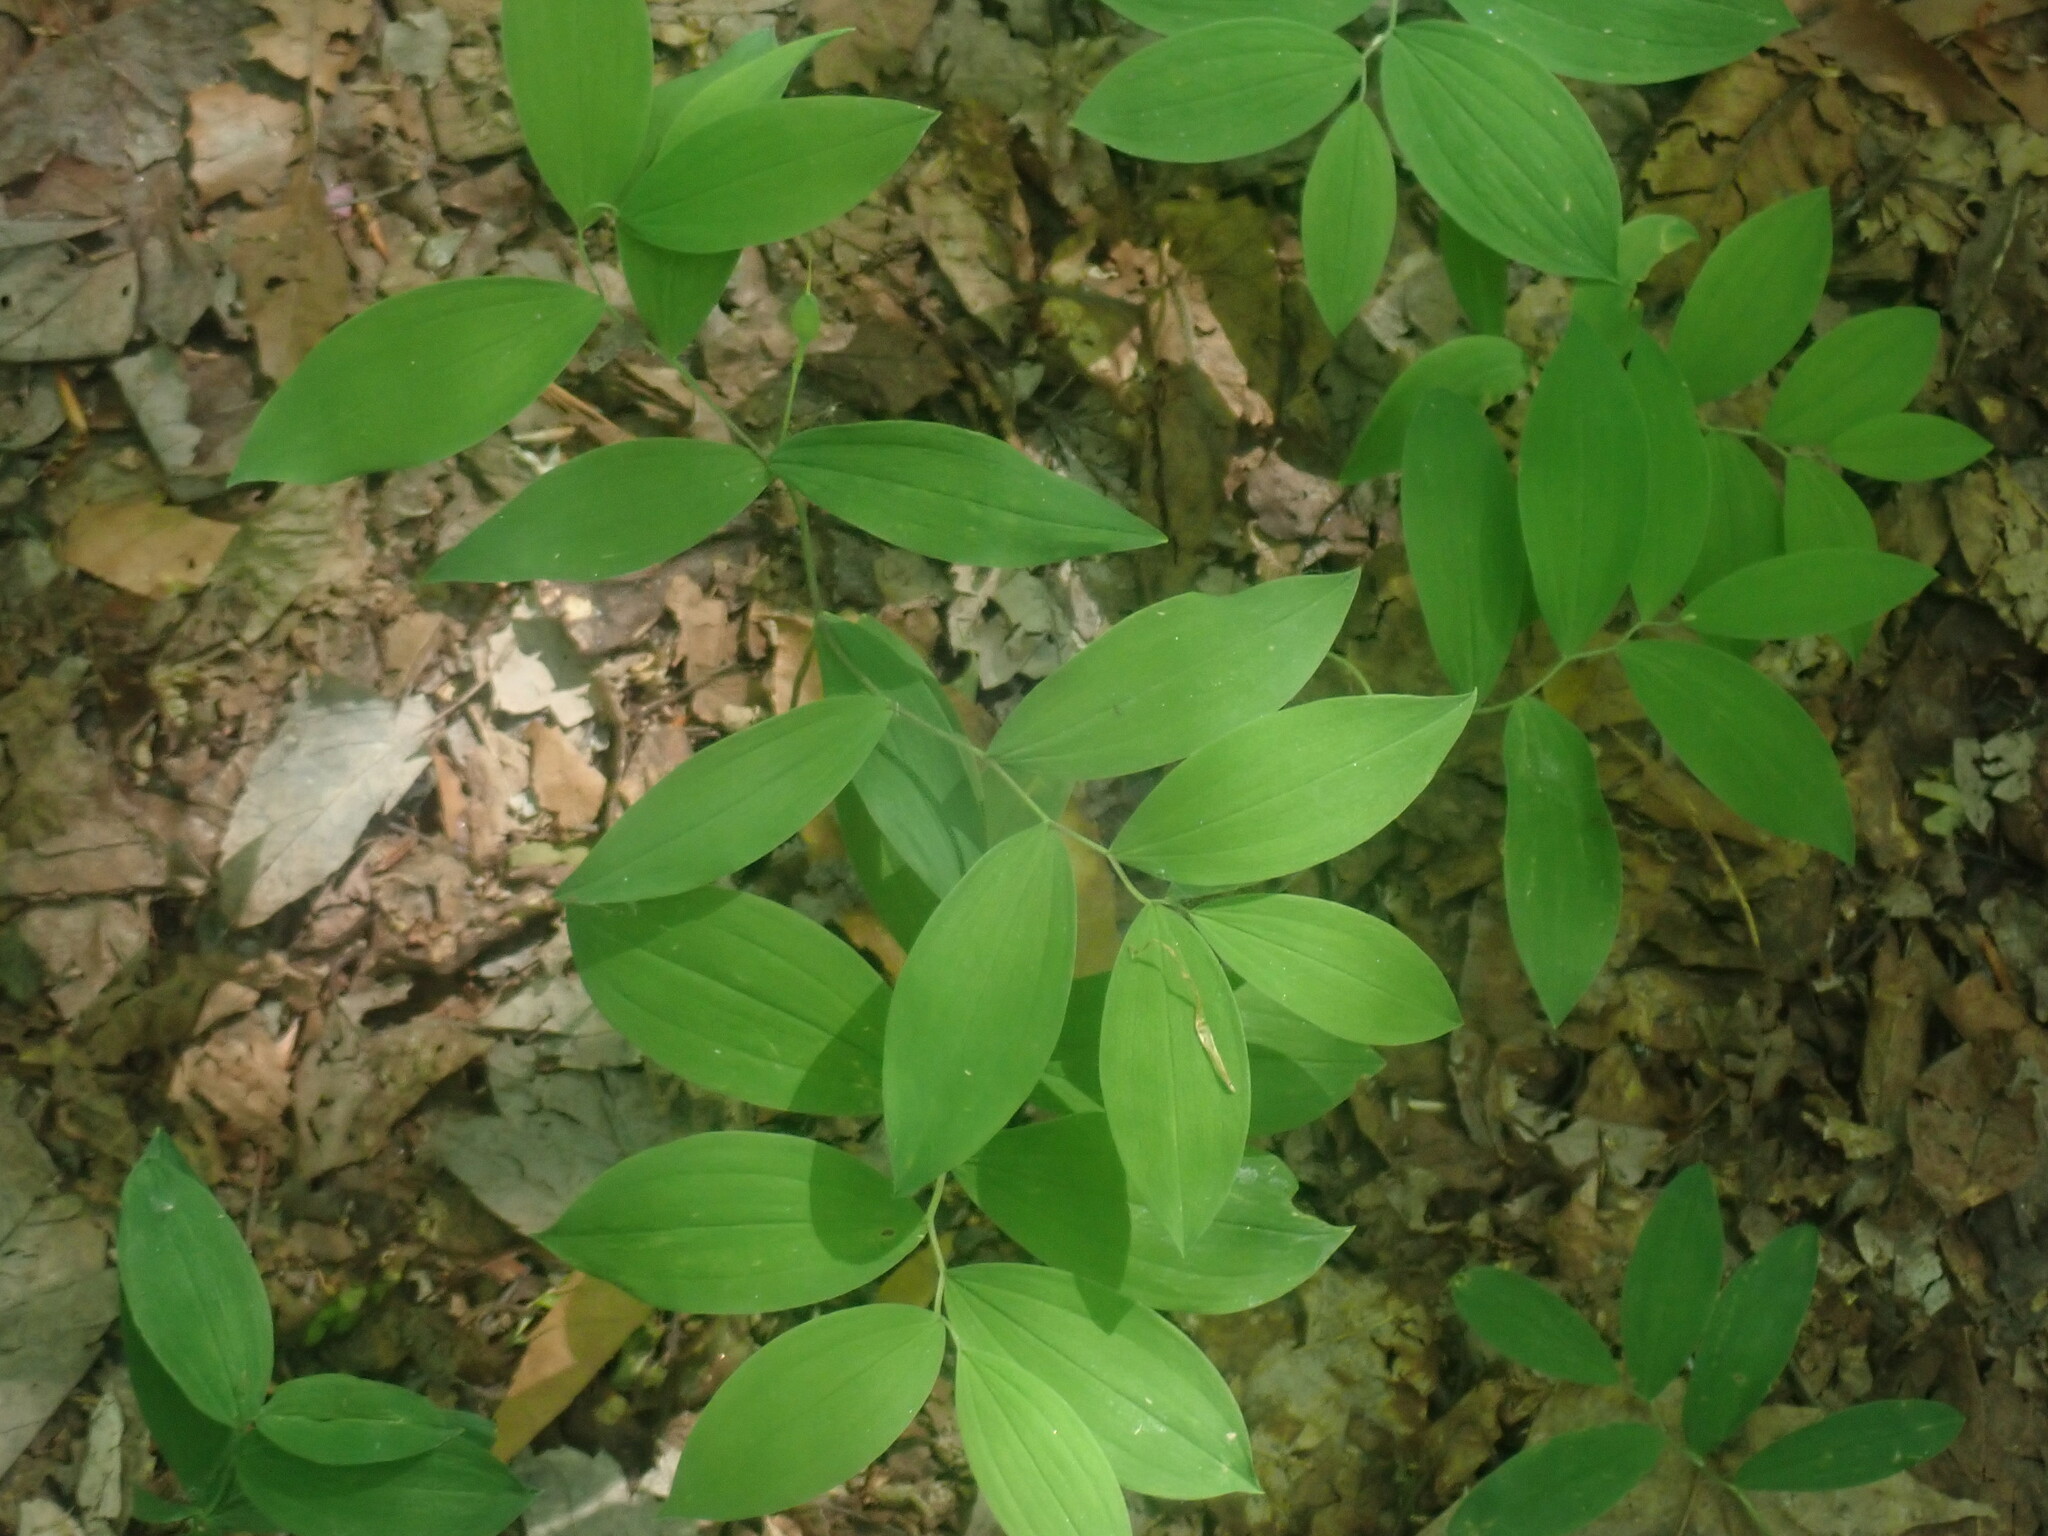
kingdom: Plantae
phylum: Tracheophyta
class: Liliopsida
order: Liliales
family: Colchicaceae
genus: Uvularia
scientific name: Uvularia sessilifolia
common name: Straw-lily
